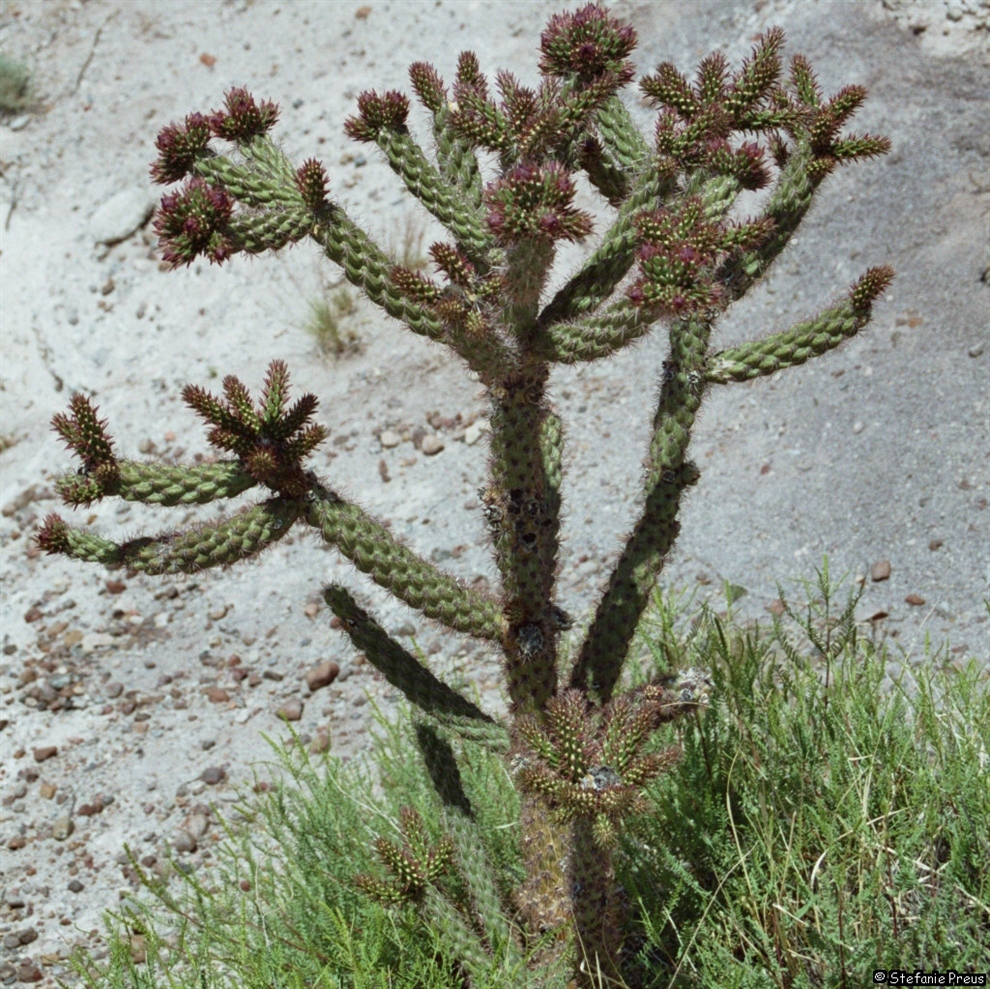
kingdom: Plantae
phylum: Tracheophyta
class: Magnoliopsida
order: Caryophyllales
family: Cactaceae
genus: Cylindropuntia
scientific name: Cylindropuntia imbricata
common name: Candelabrum cactus
